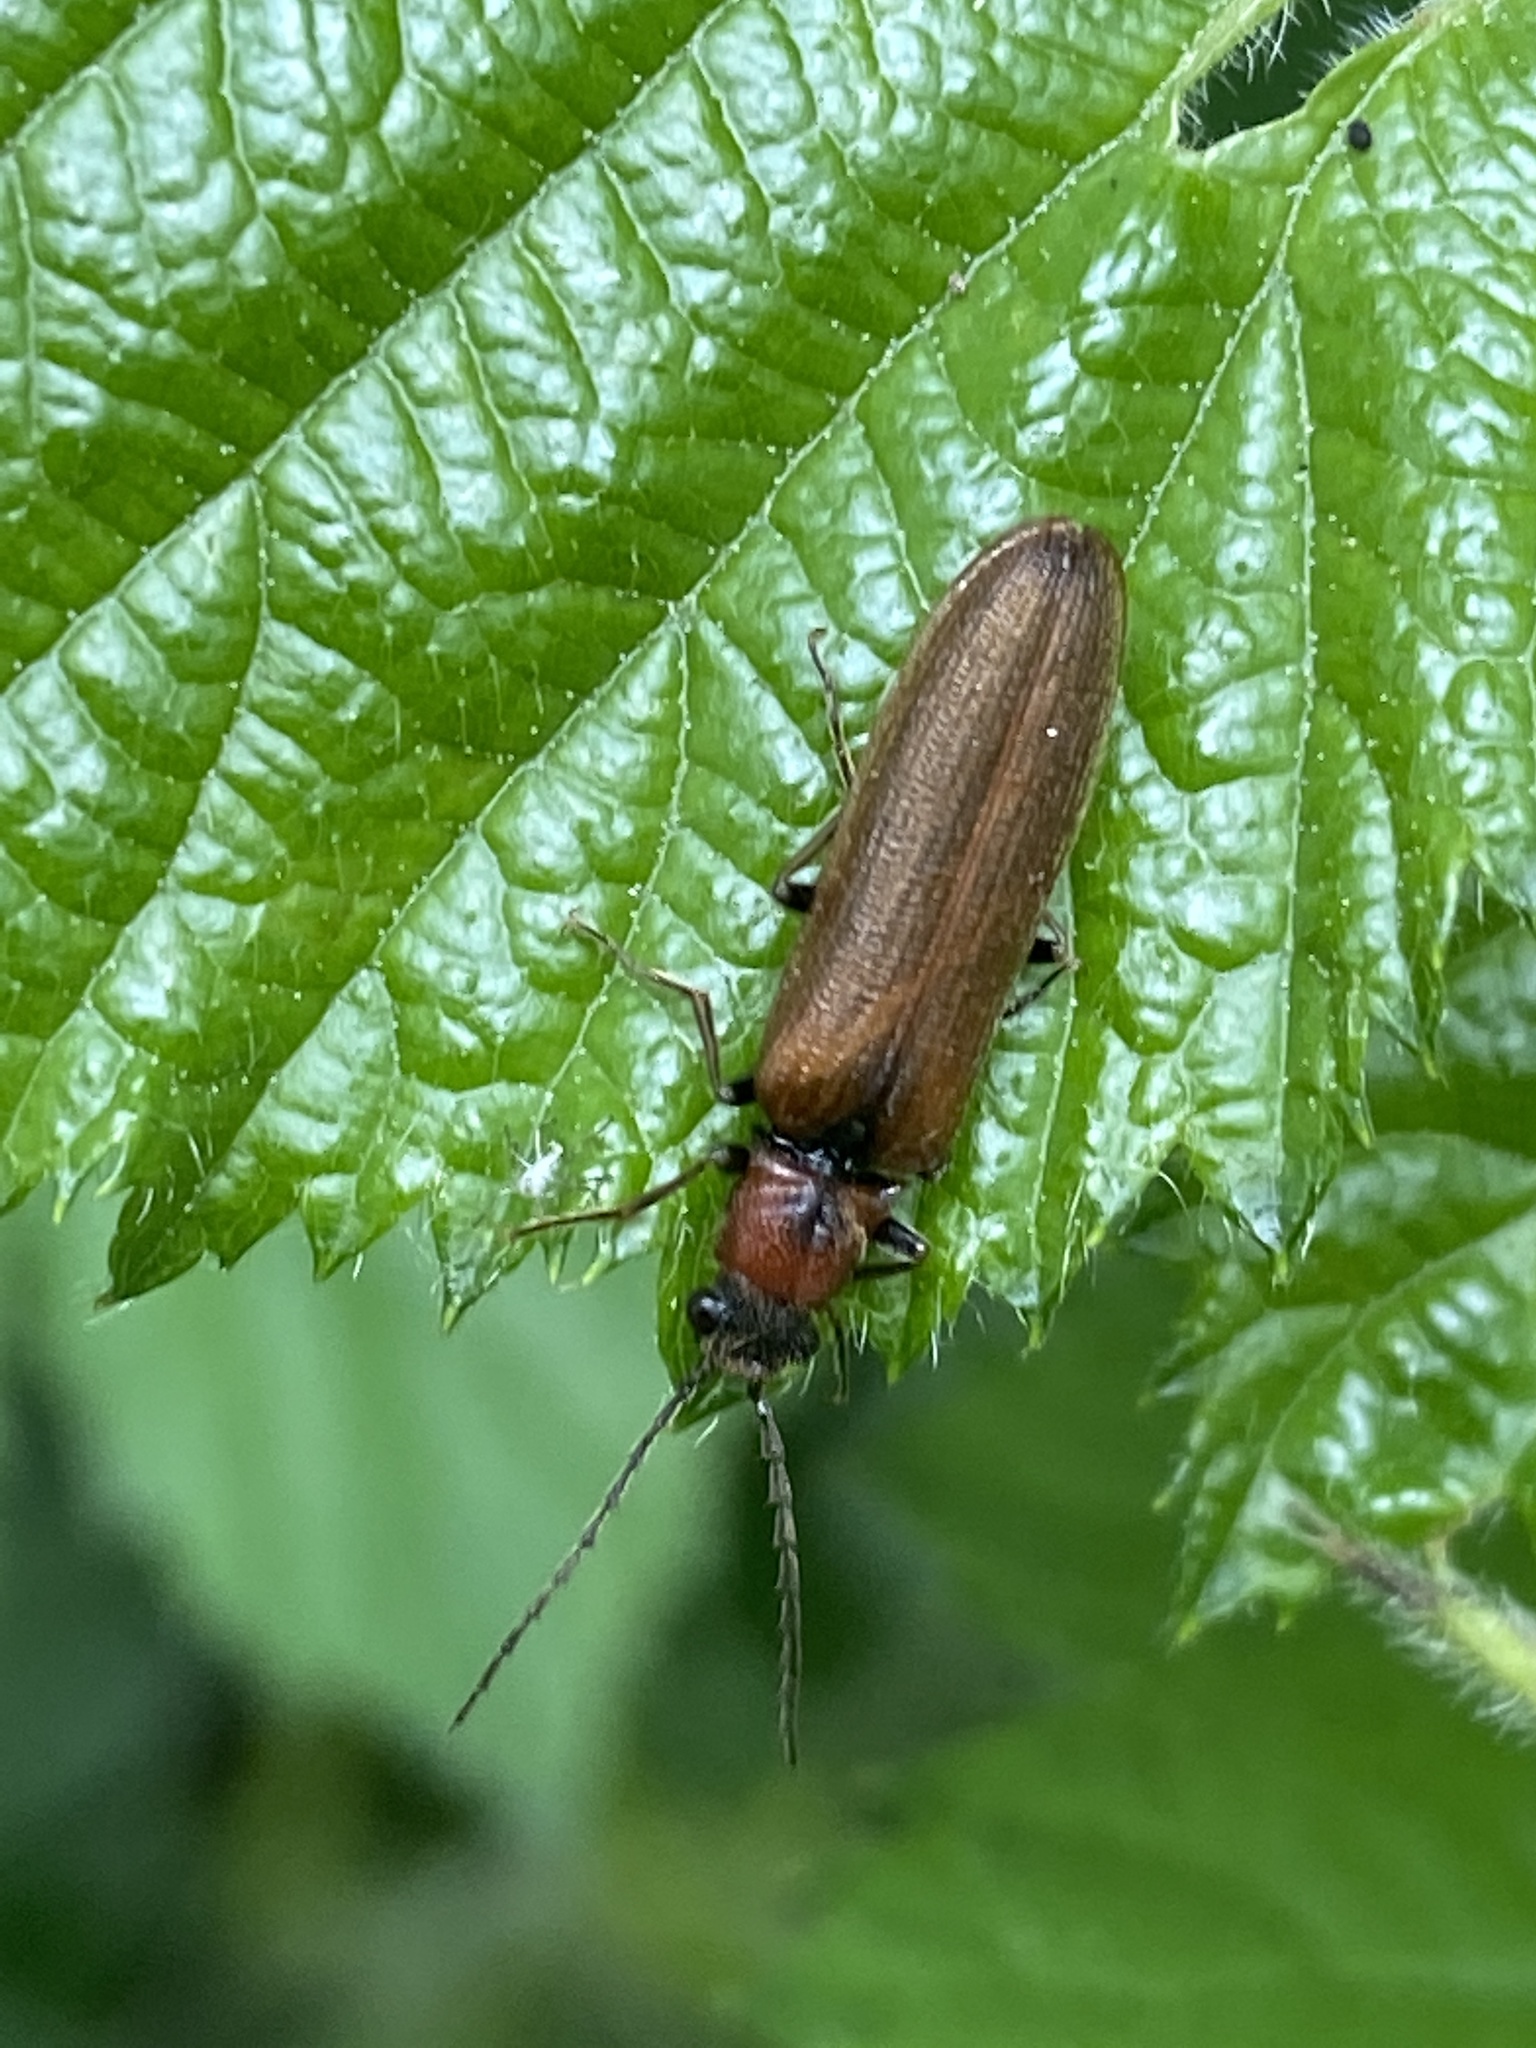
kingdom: Animalia
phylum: Arthropoda
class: Insecta
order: Coleoptera
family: Elateridae
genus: Denticollis
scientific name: Denticollis linearis
